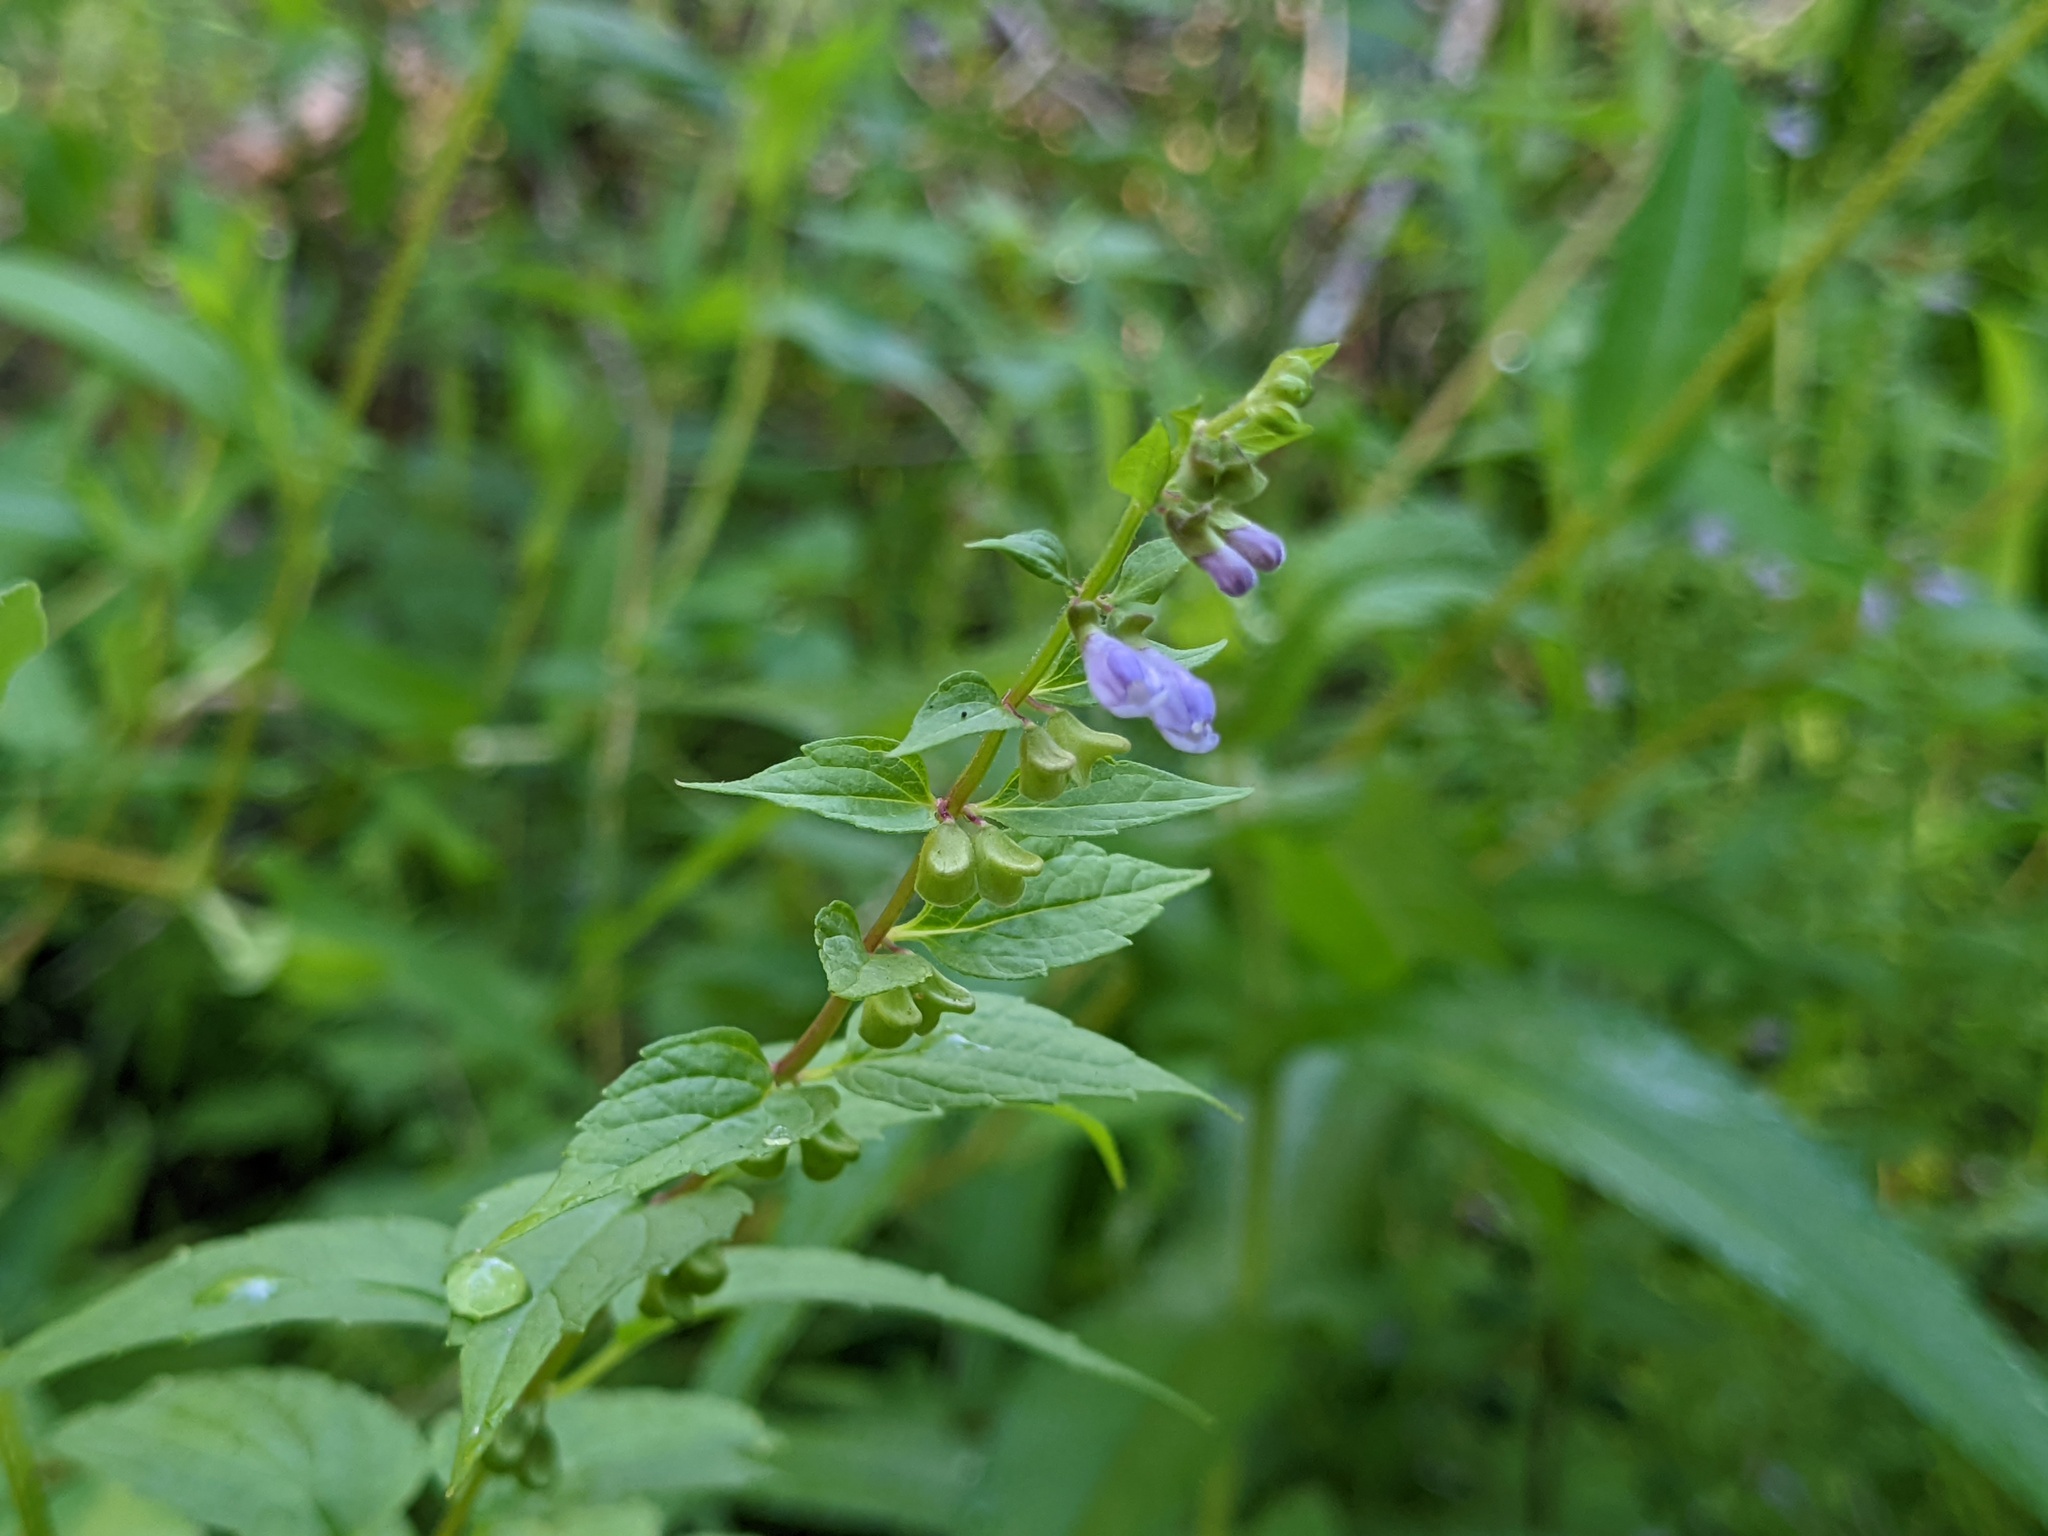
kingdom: Plantae
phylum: Tracheophyta
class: Magnoliopsida
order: Lamiales
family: Lamiaceae
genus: Scutellaria
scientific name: Scutellaria lateriflora
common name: Blue skullcap
